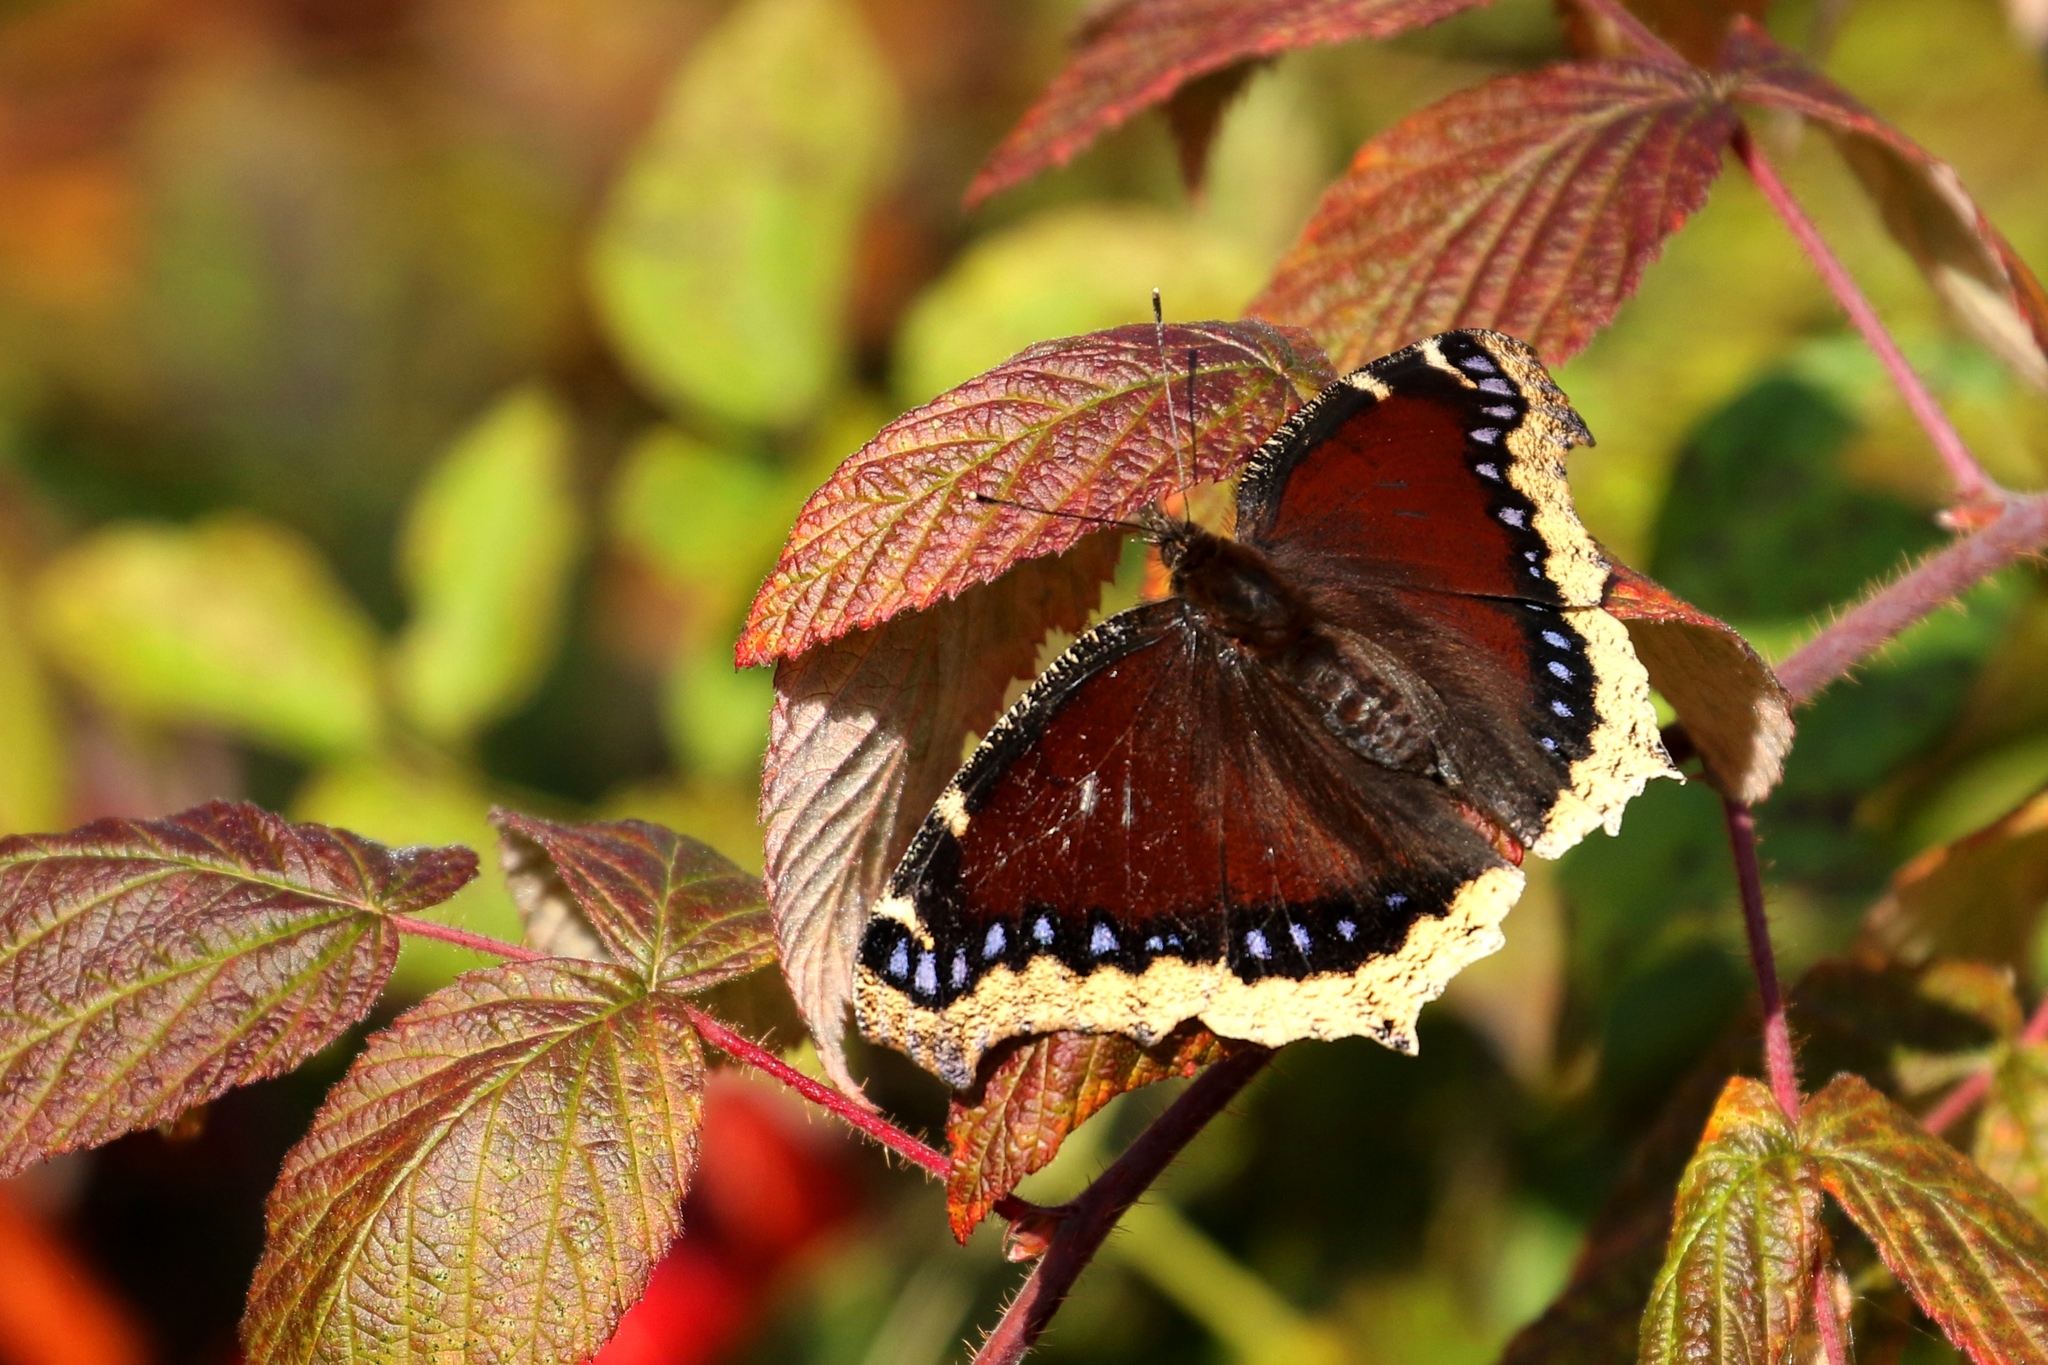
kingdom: Animalia
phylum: Arthropoda
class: Insecta
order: Lepidoptera
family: Nymphalidae
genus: Nymphalis
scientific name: Nymphalis antiopa
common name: Camberwell beauty
